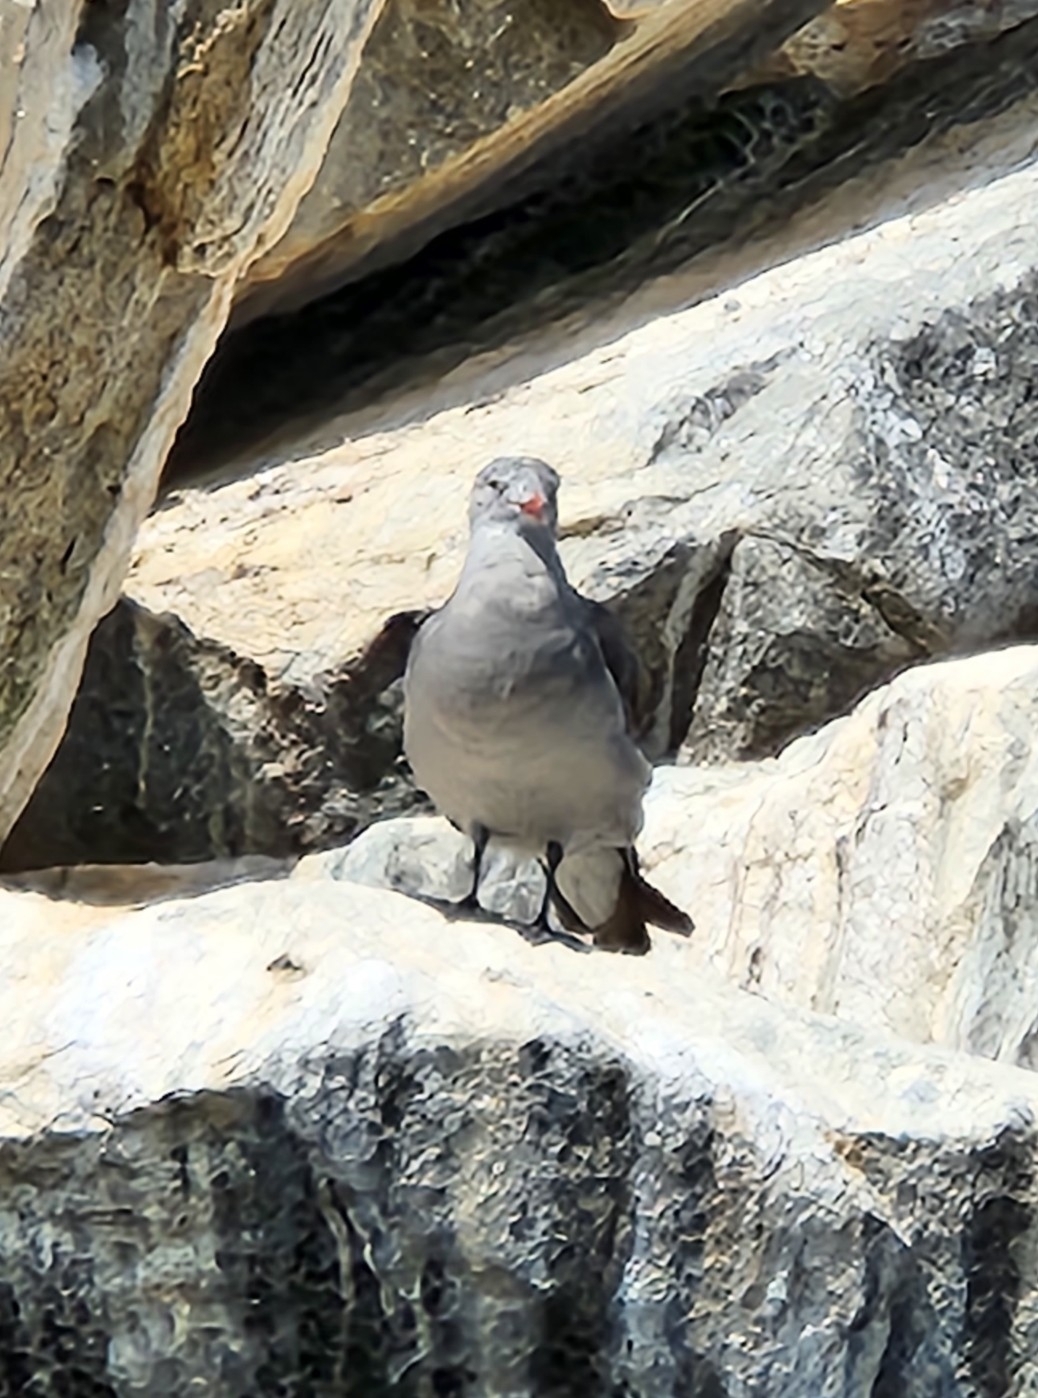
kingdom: Animalia
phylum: Chordata
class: Aves
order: Charadriiformes
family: Laridae
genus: Larus
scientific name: Larus heermanni
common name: Heermann's gull
